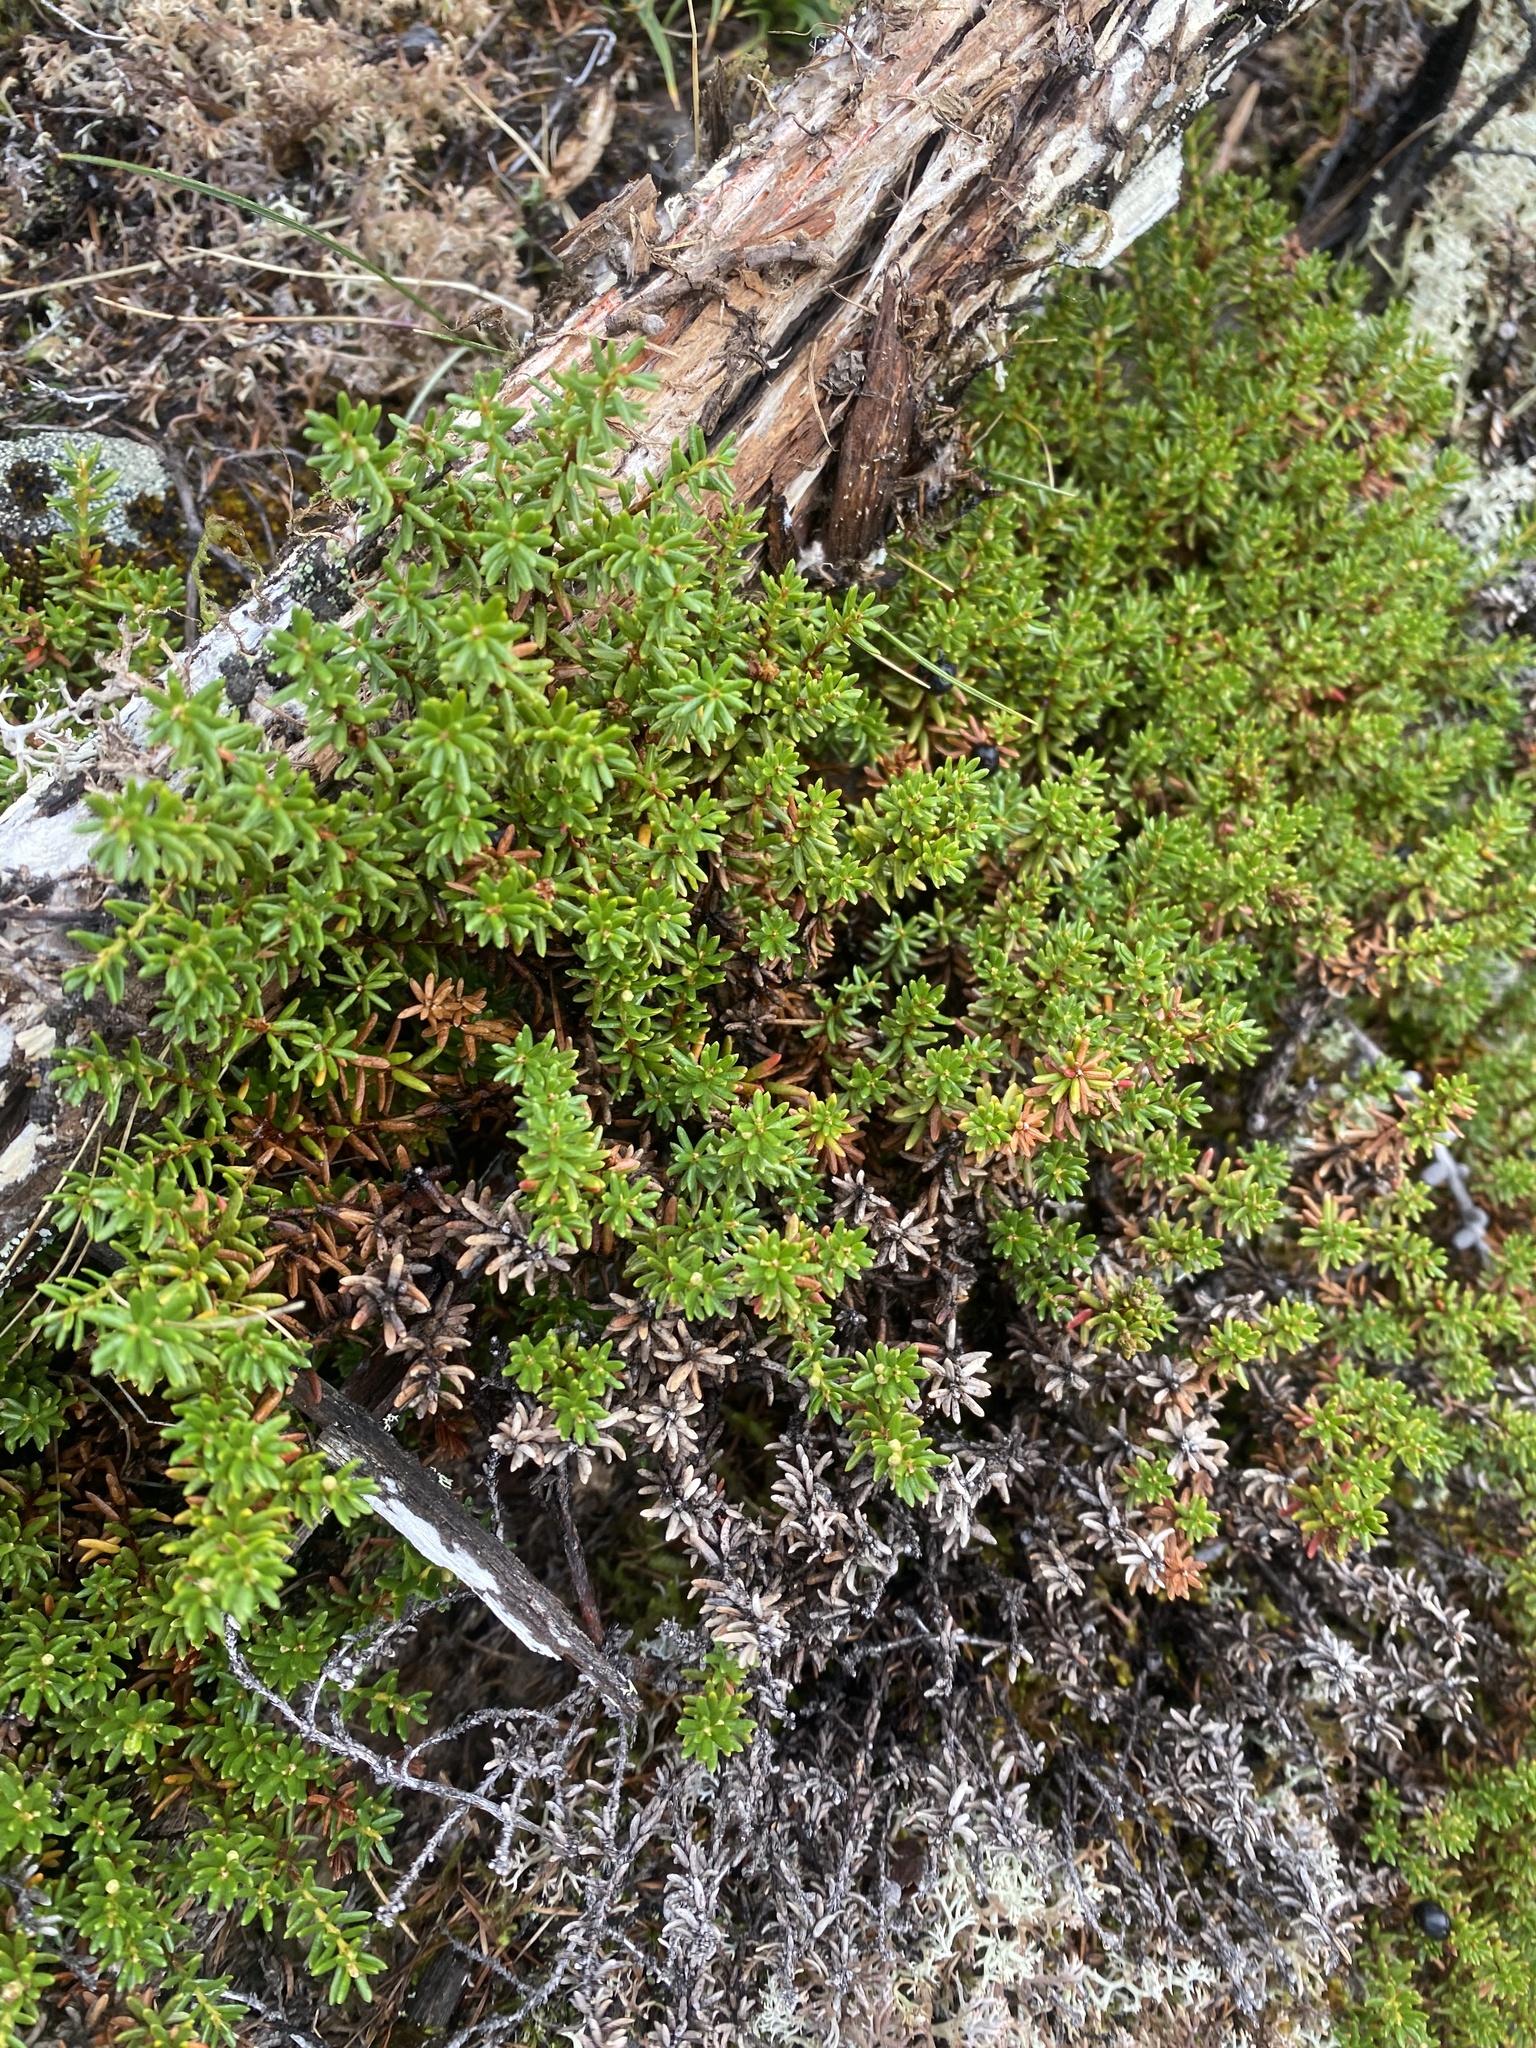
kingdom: Plantae
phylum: Tracheophyta
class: Magnoliopsida
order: Ericales
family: Ericaceae
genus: Empetrum
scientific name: Empetrum nigrum
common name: Black crowberry
